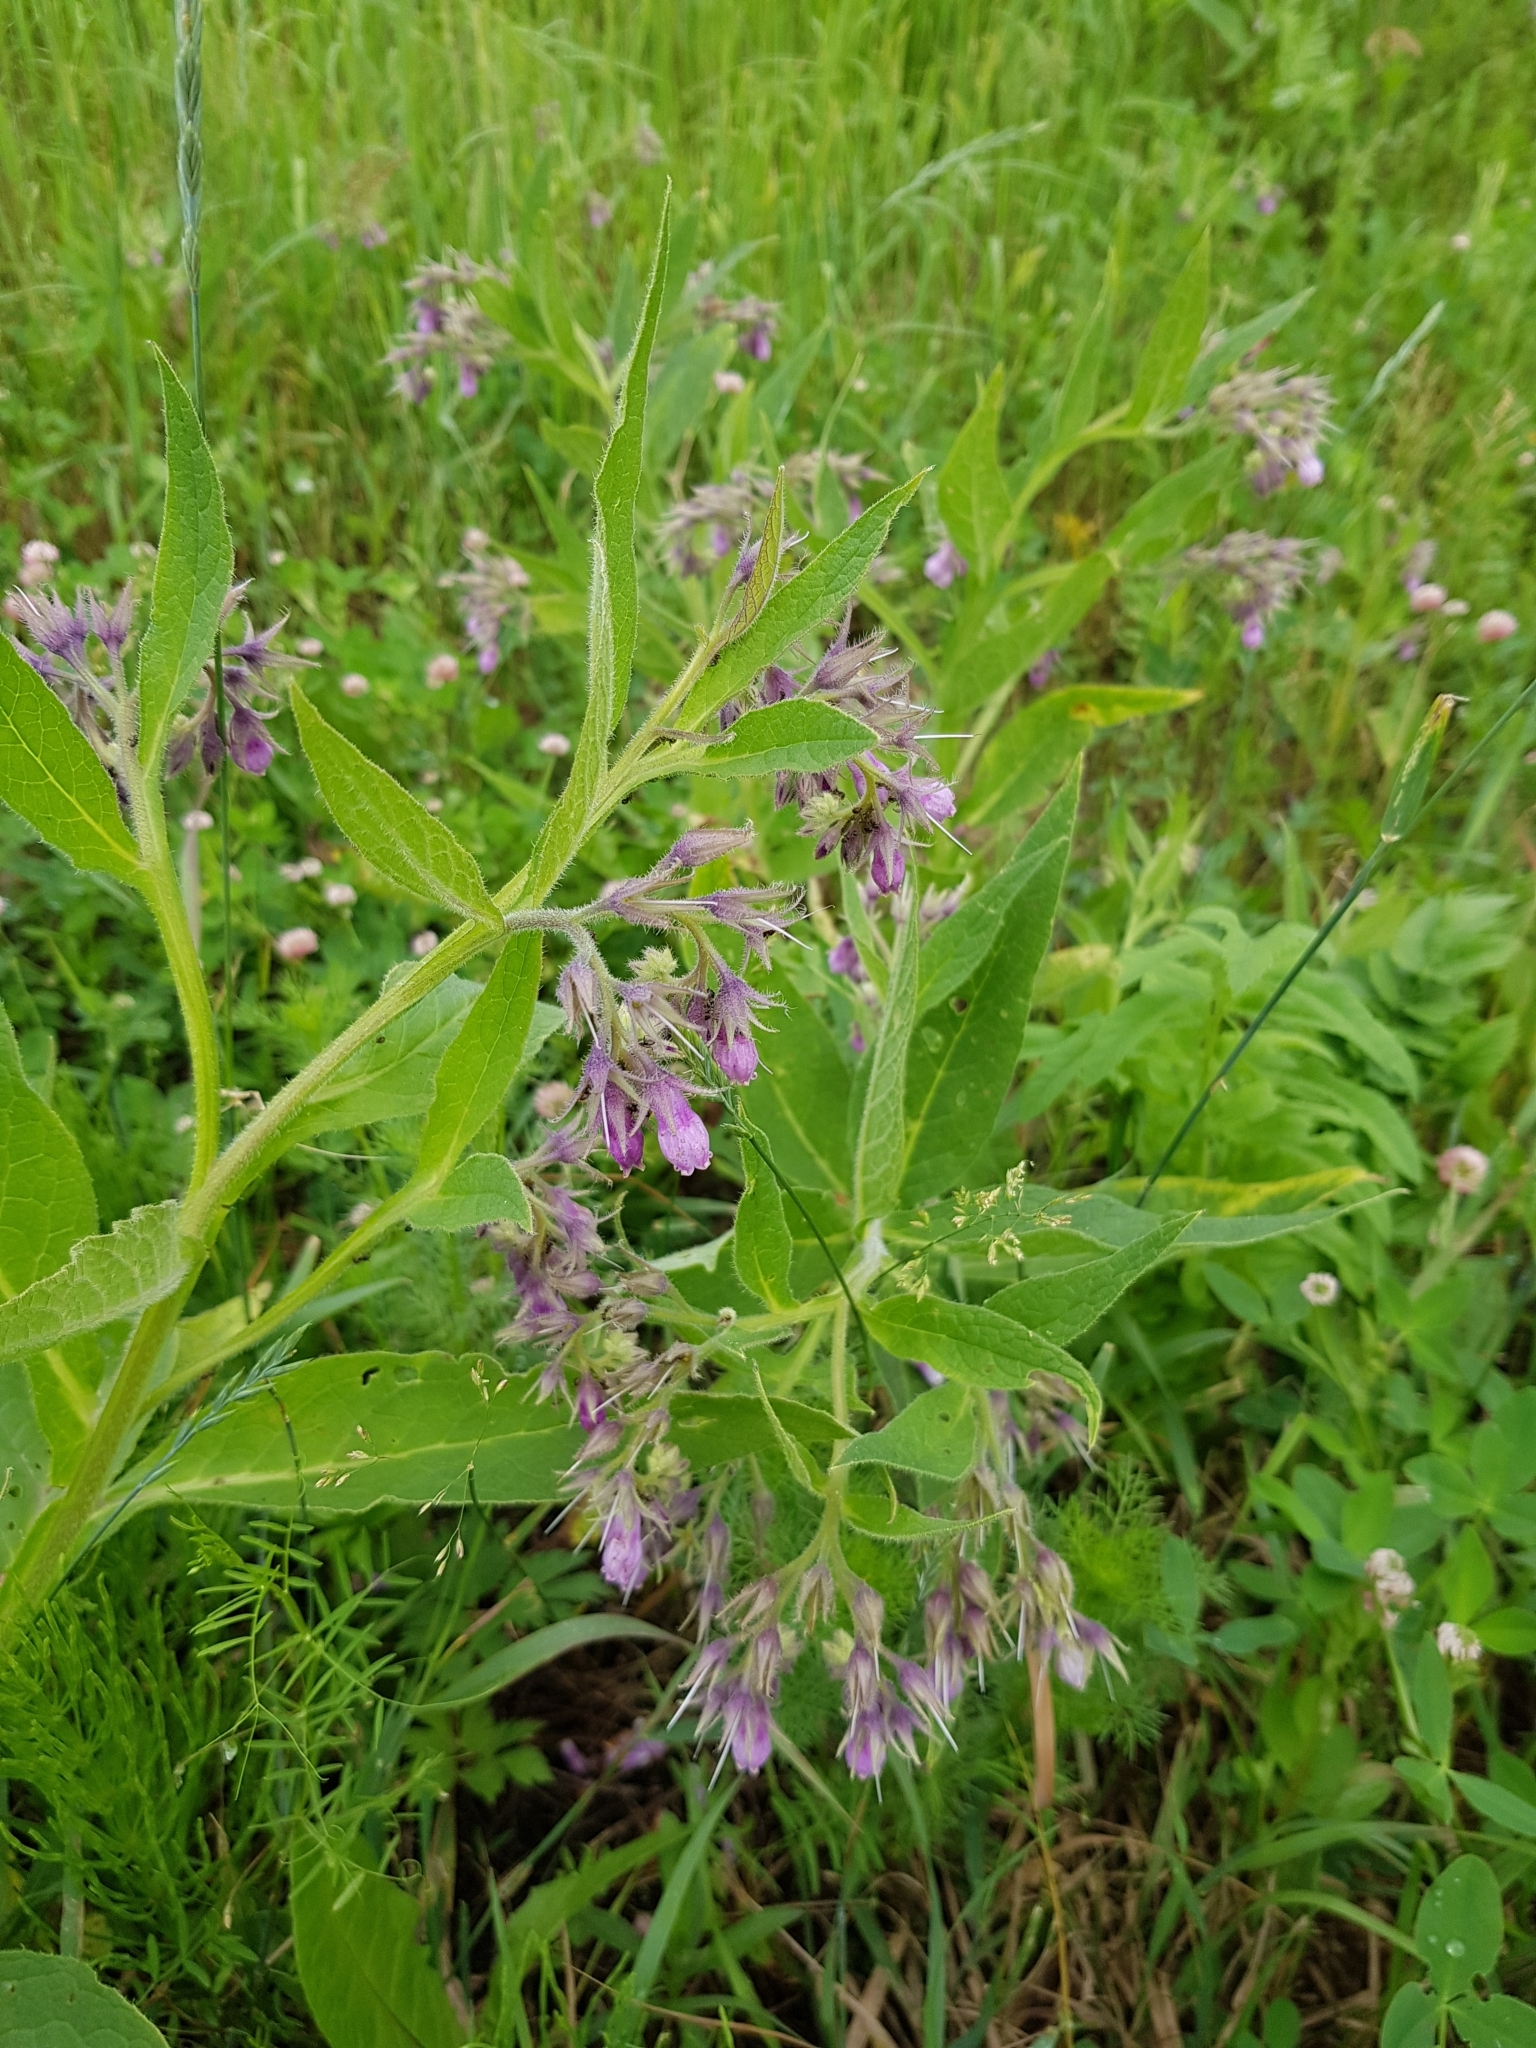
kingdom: Plantae
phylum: Tracheophyta
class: Magnoliopsida
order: Boraginales
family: Boraginaceae
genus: Symphytum
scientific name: Symphytum officinale
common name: Common comfrey
